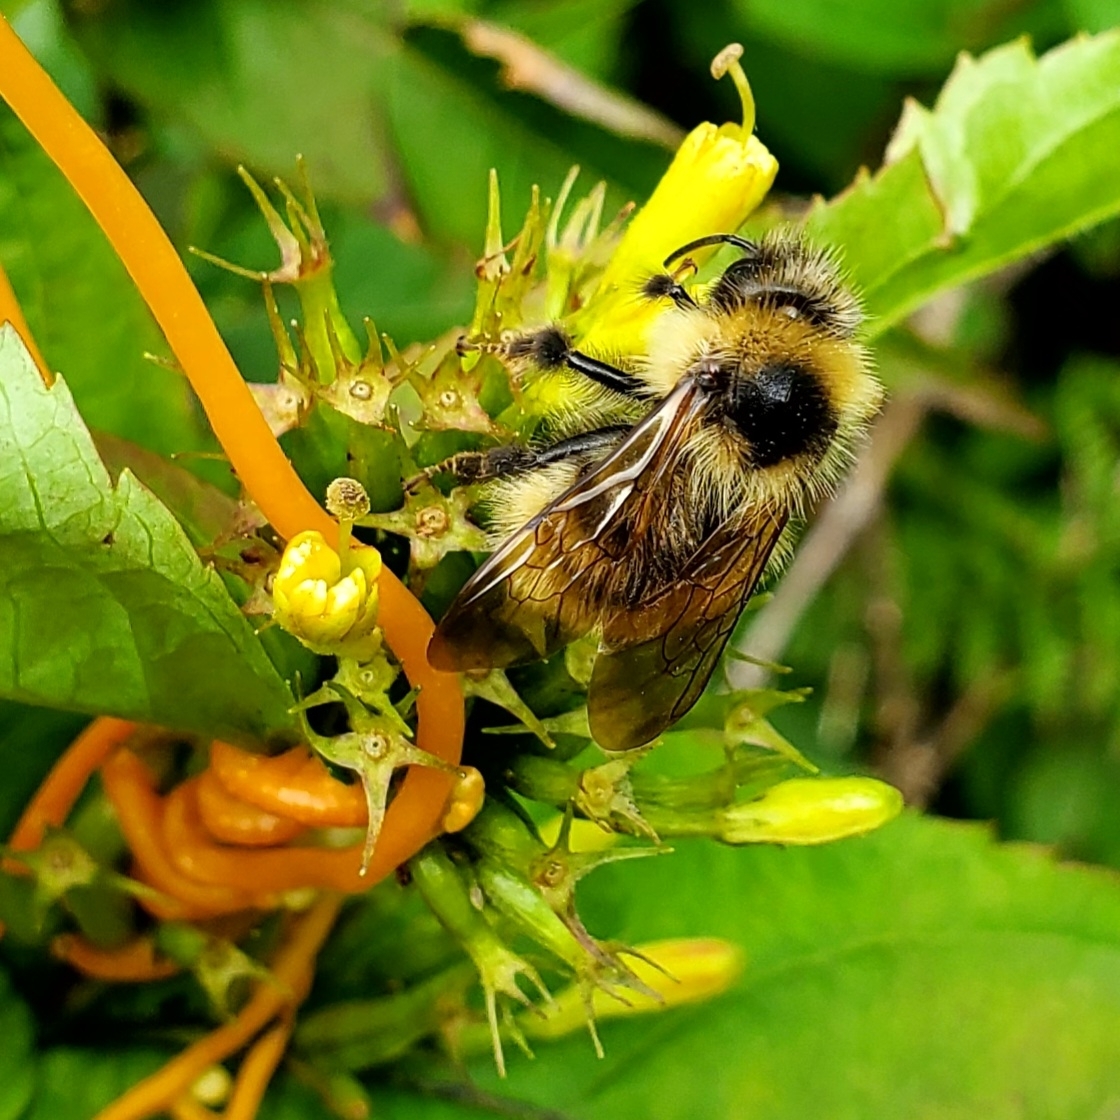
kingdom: Animalia
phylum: Arthropoda
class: Insecta
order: Hymenoptera
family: Apidae
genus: Bombus
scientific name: Bombus flavidus
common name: Fernald cuckoo bumble bee
